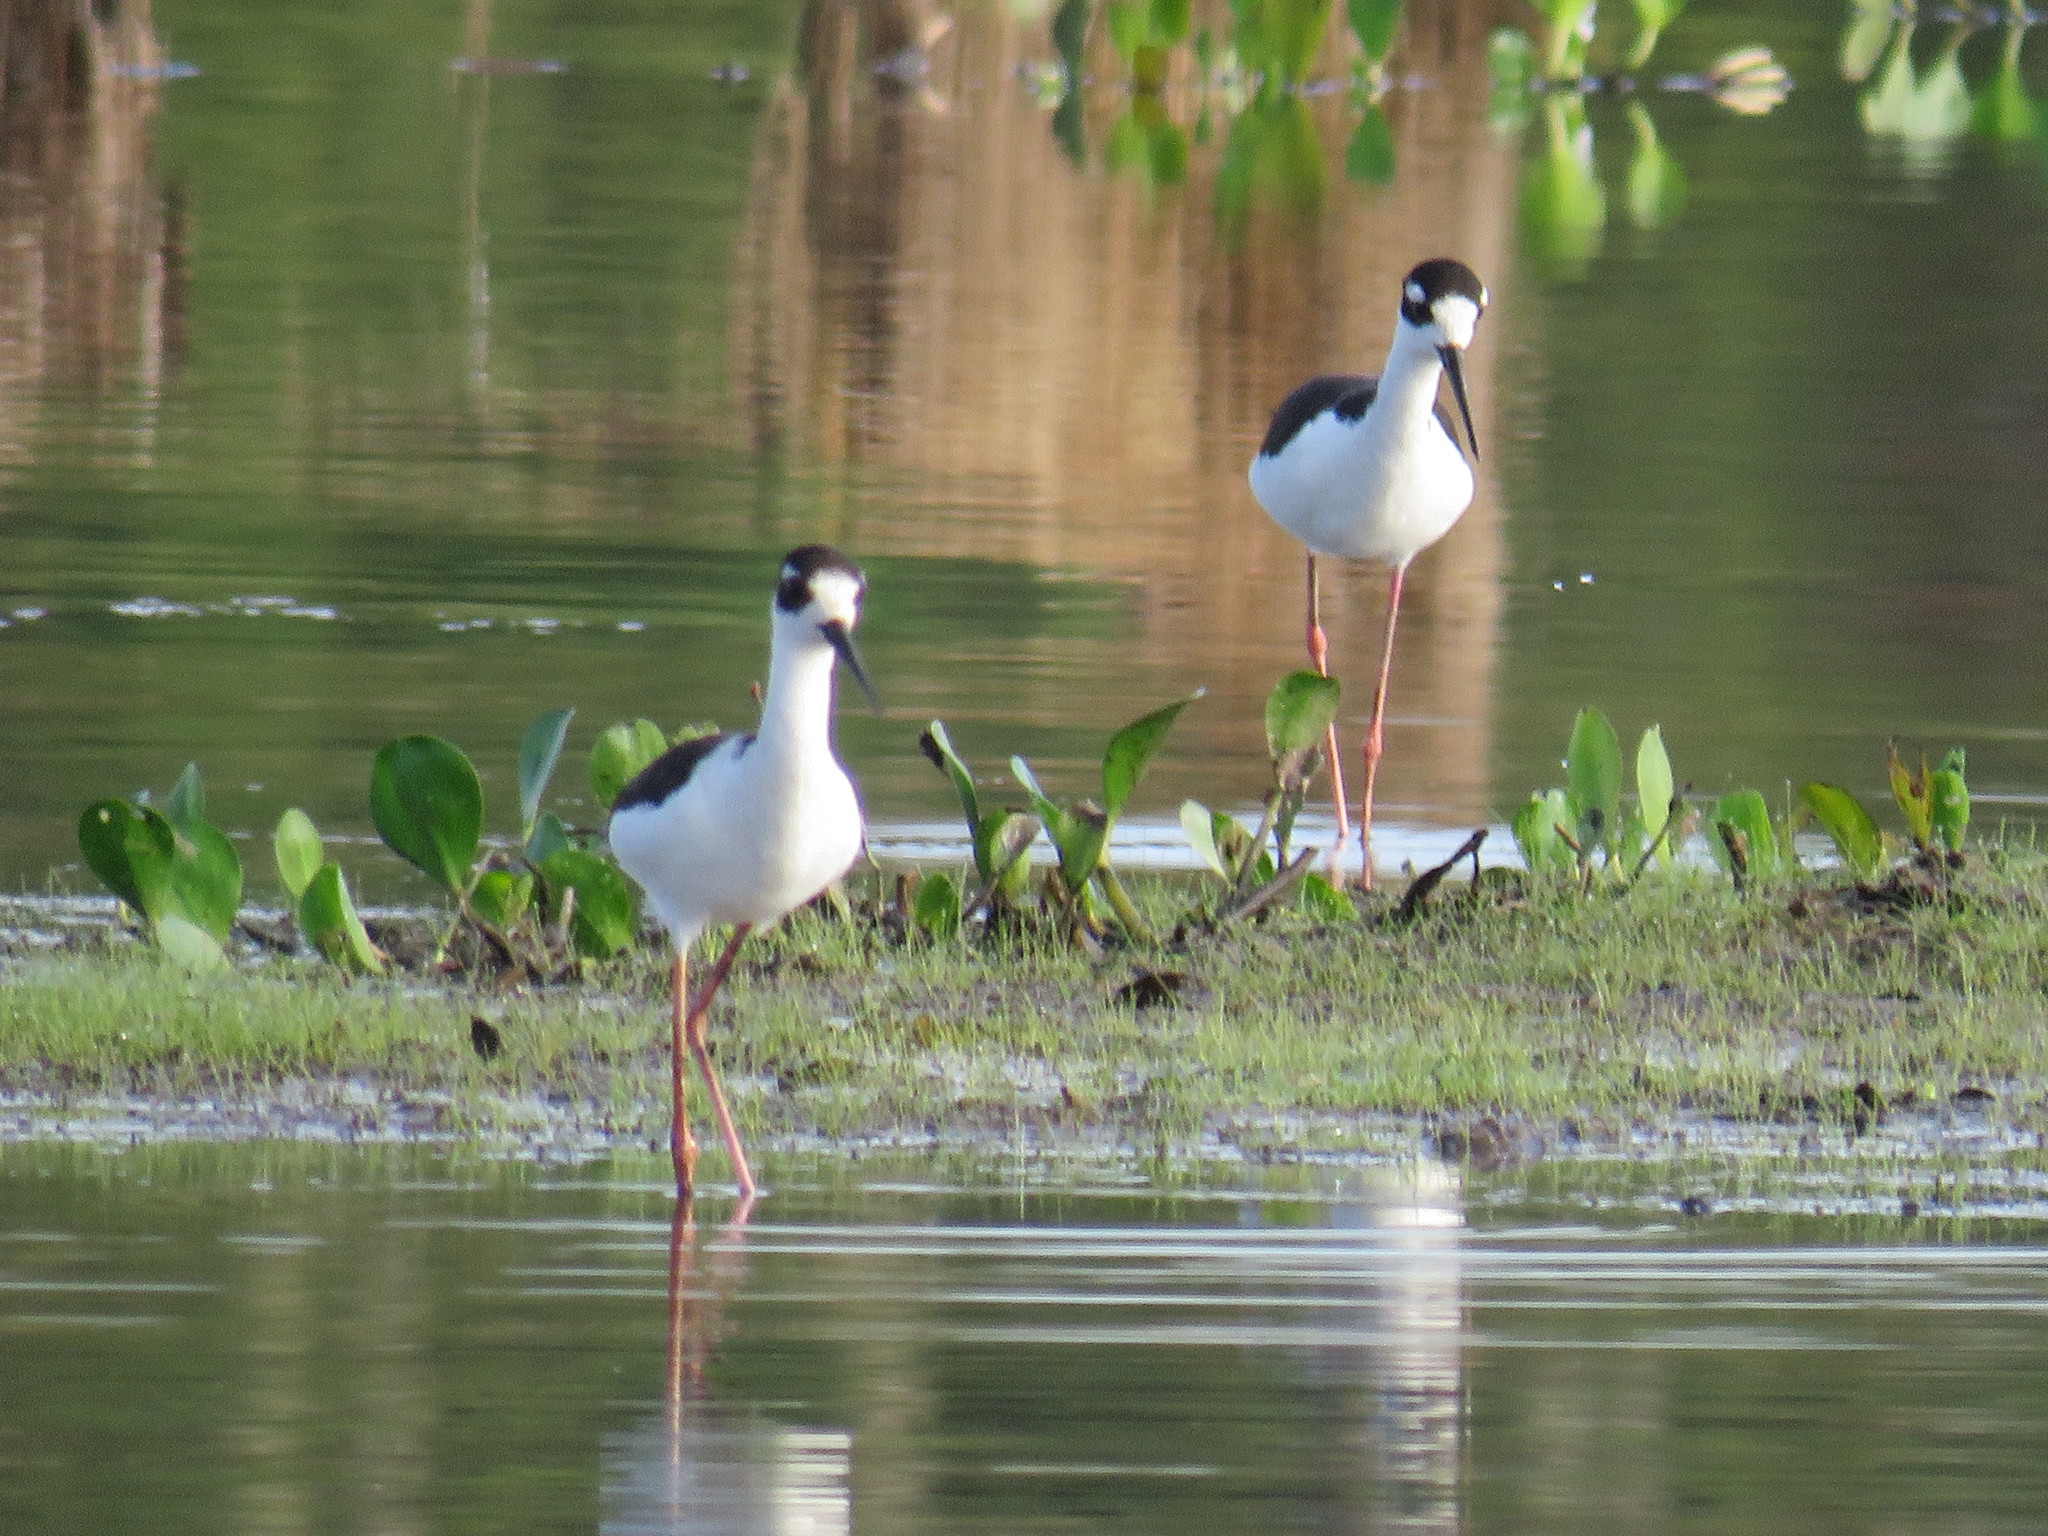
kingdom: Animalia
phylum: Chordata
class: Aves
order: Charadriiformes
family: Recurvirostridae
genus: Himantopus
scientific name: Himantopus mexicanus
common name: Black-necked stilt
